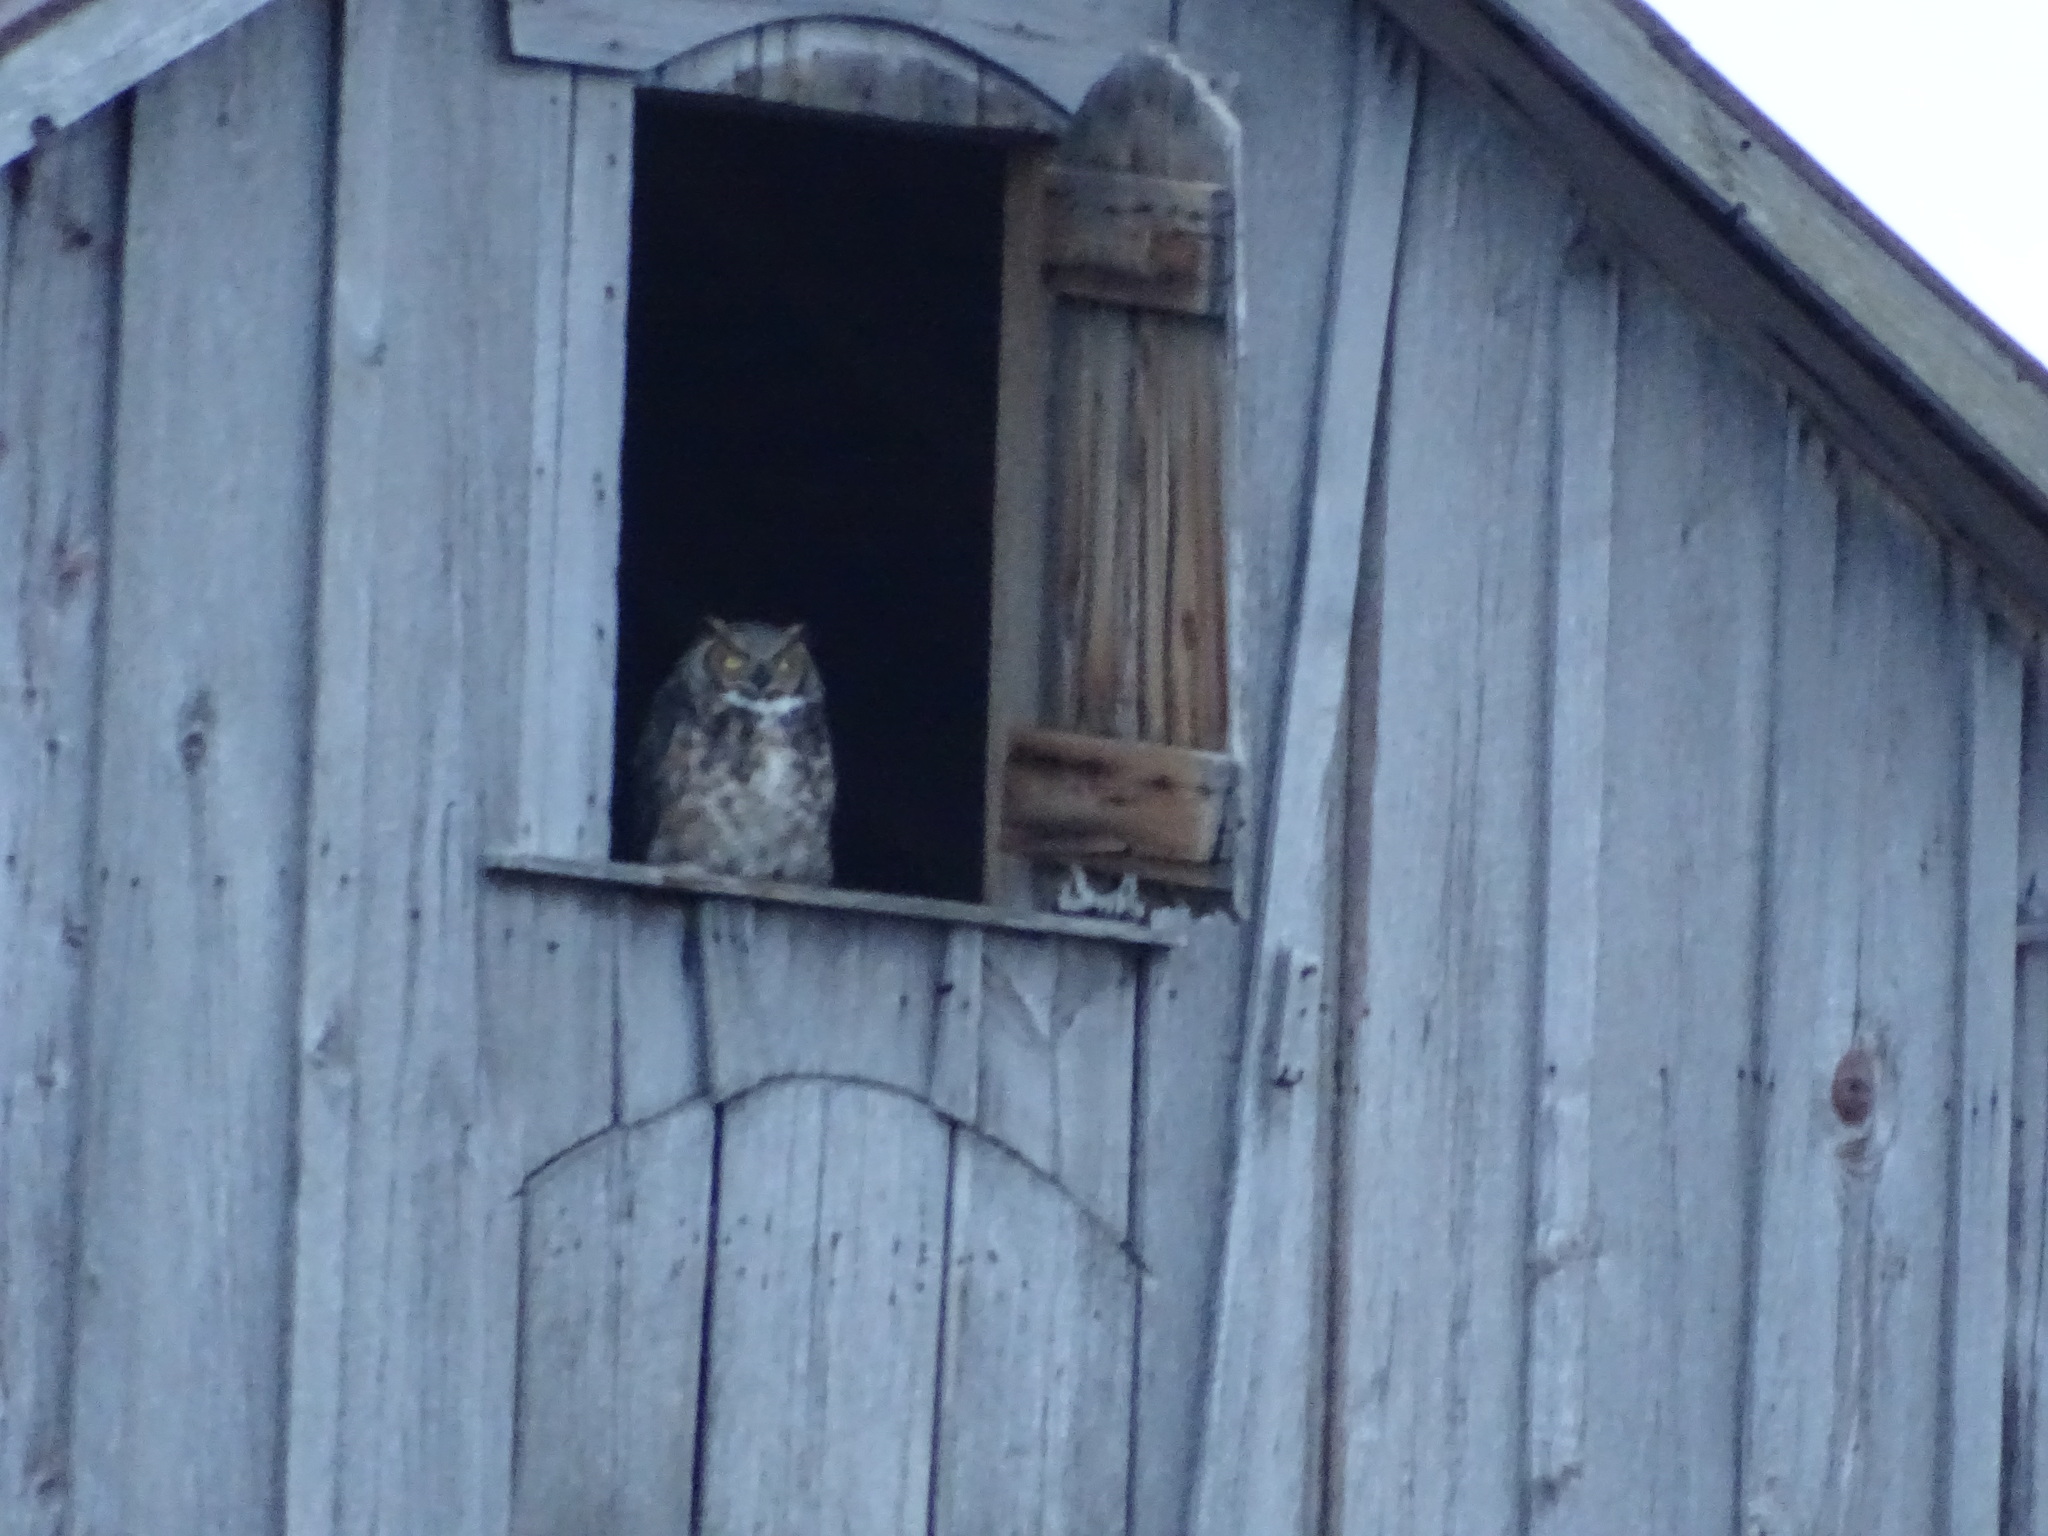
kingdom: Animalia
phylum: Chordata
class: Aves
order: Strigiformes
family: Strigidae
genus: Bubo
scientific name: Bubo virginianus
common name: Great horned owl
